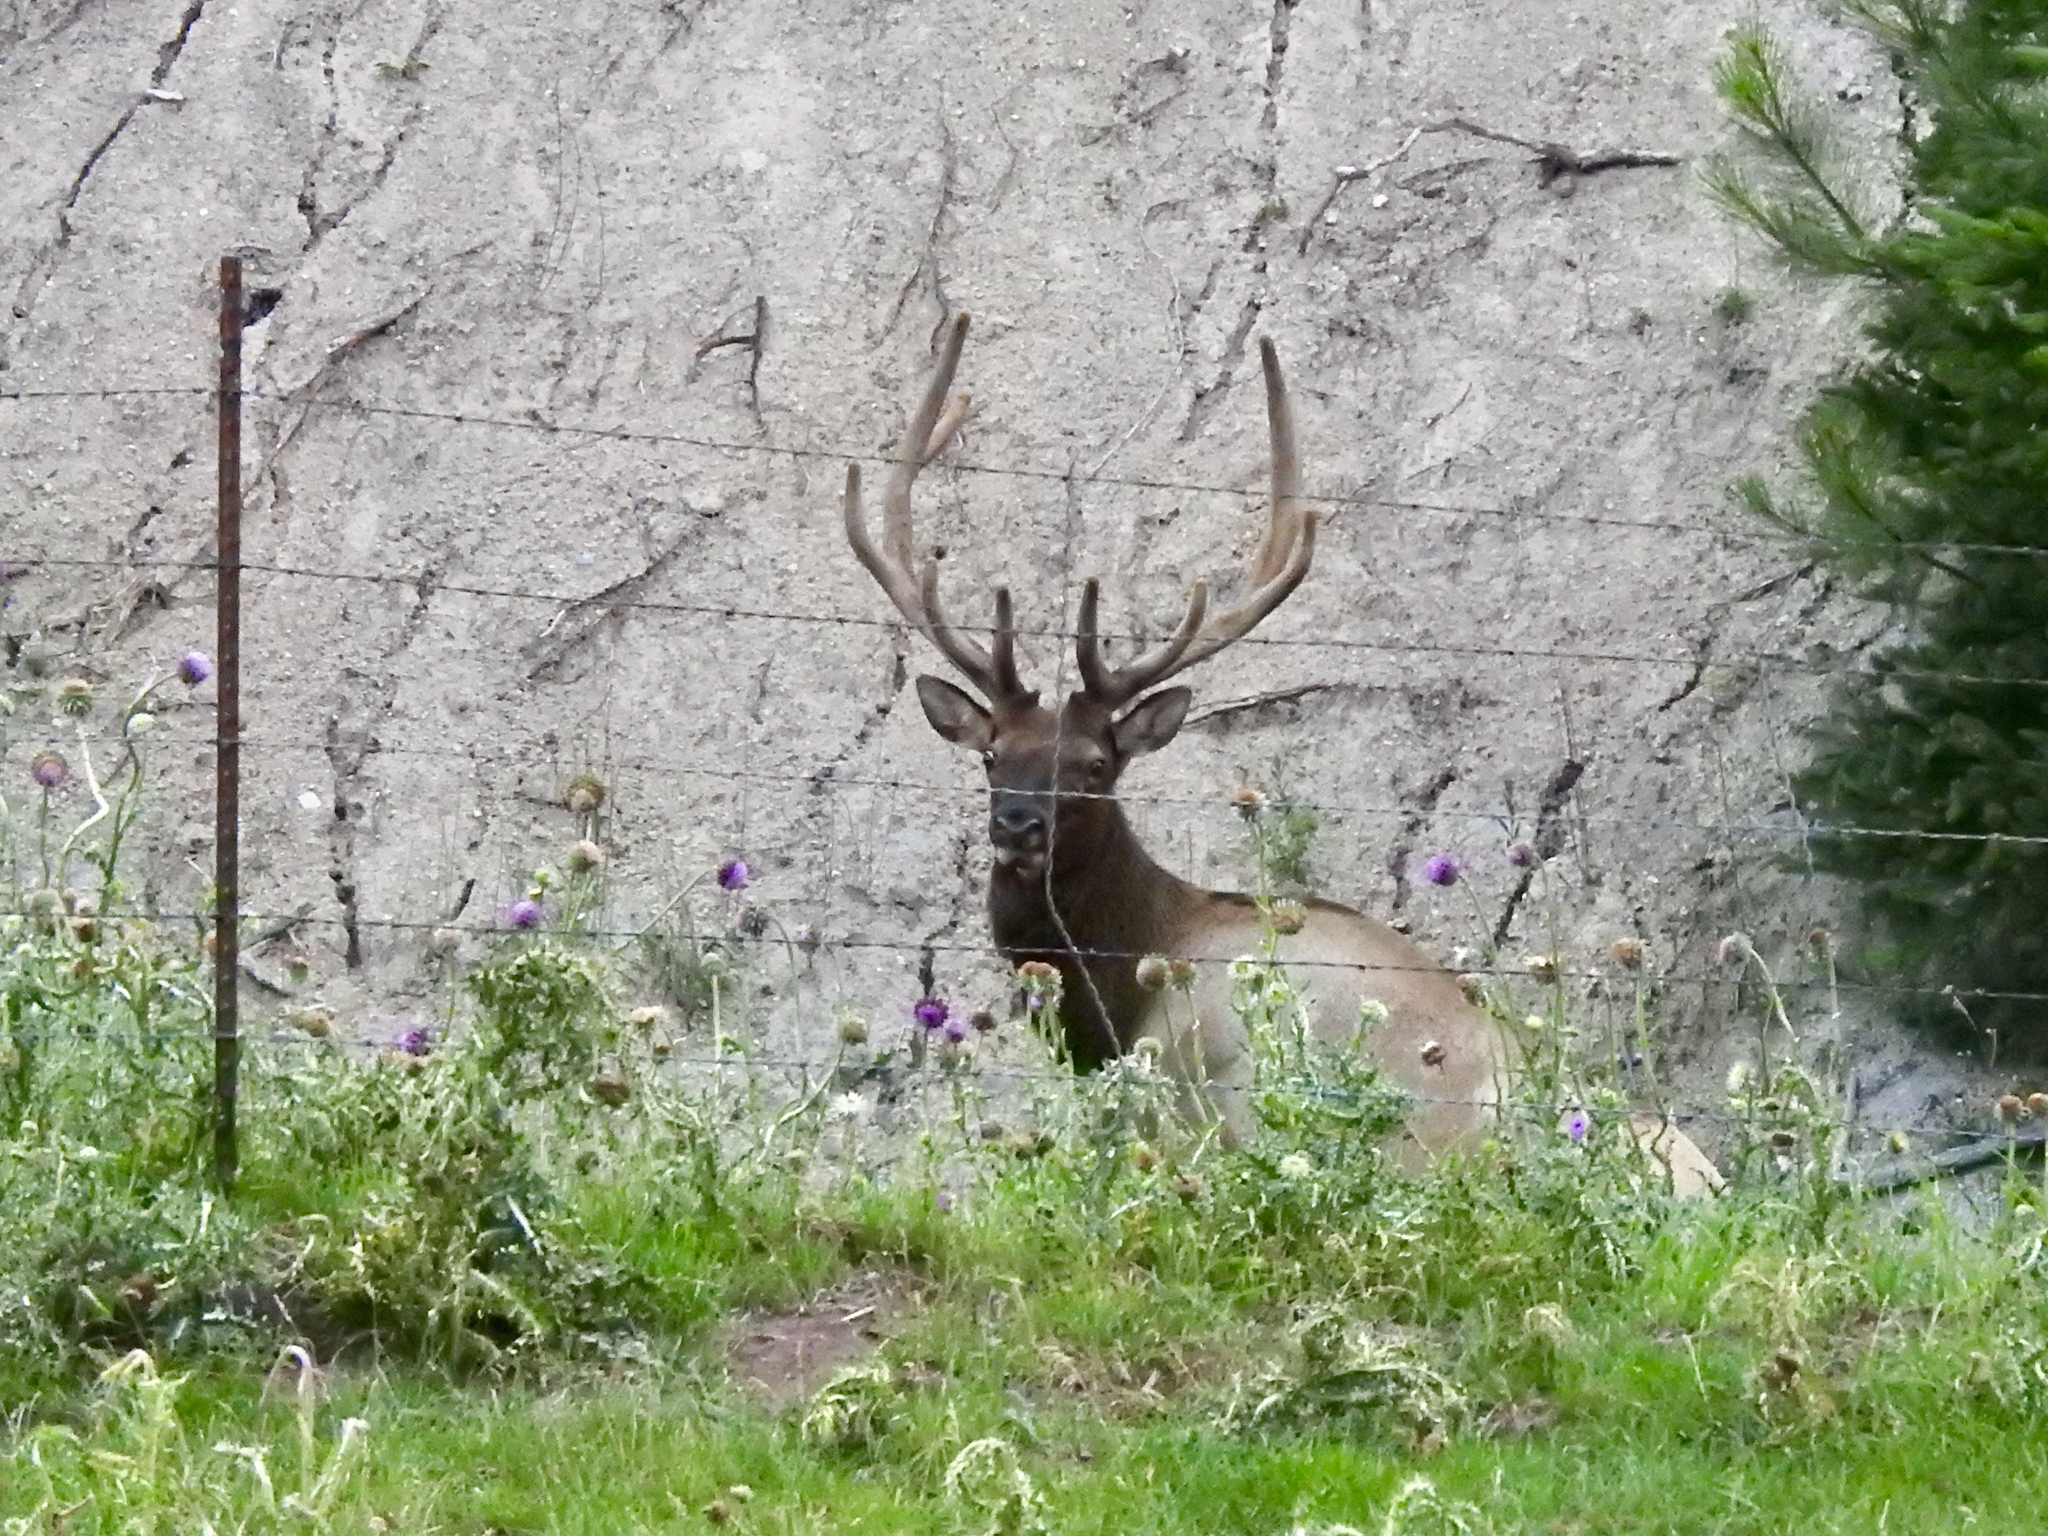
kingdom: Animalia
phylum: Chordata
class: Mammalia
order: Artiodactyla
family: Cervidae
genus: Cervus
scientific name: Cervus elaphus
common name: Red deer
